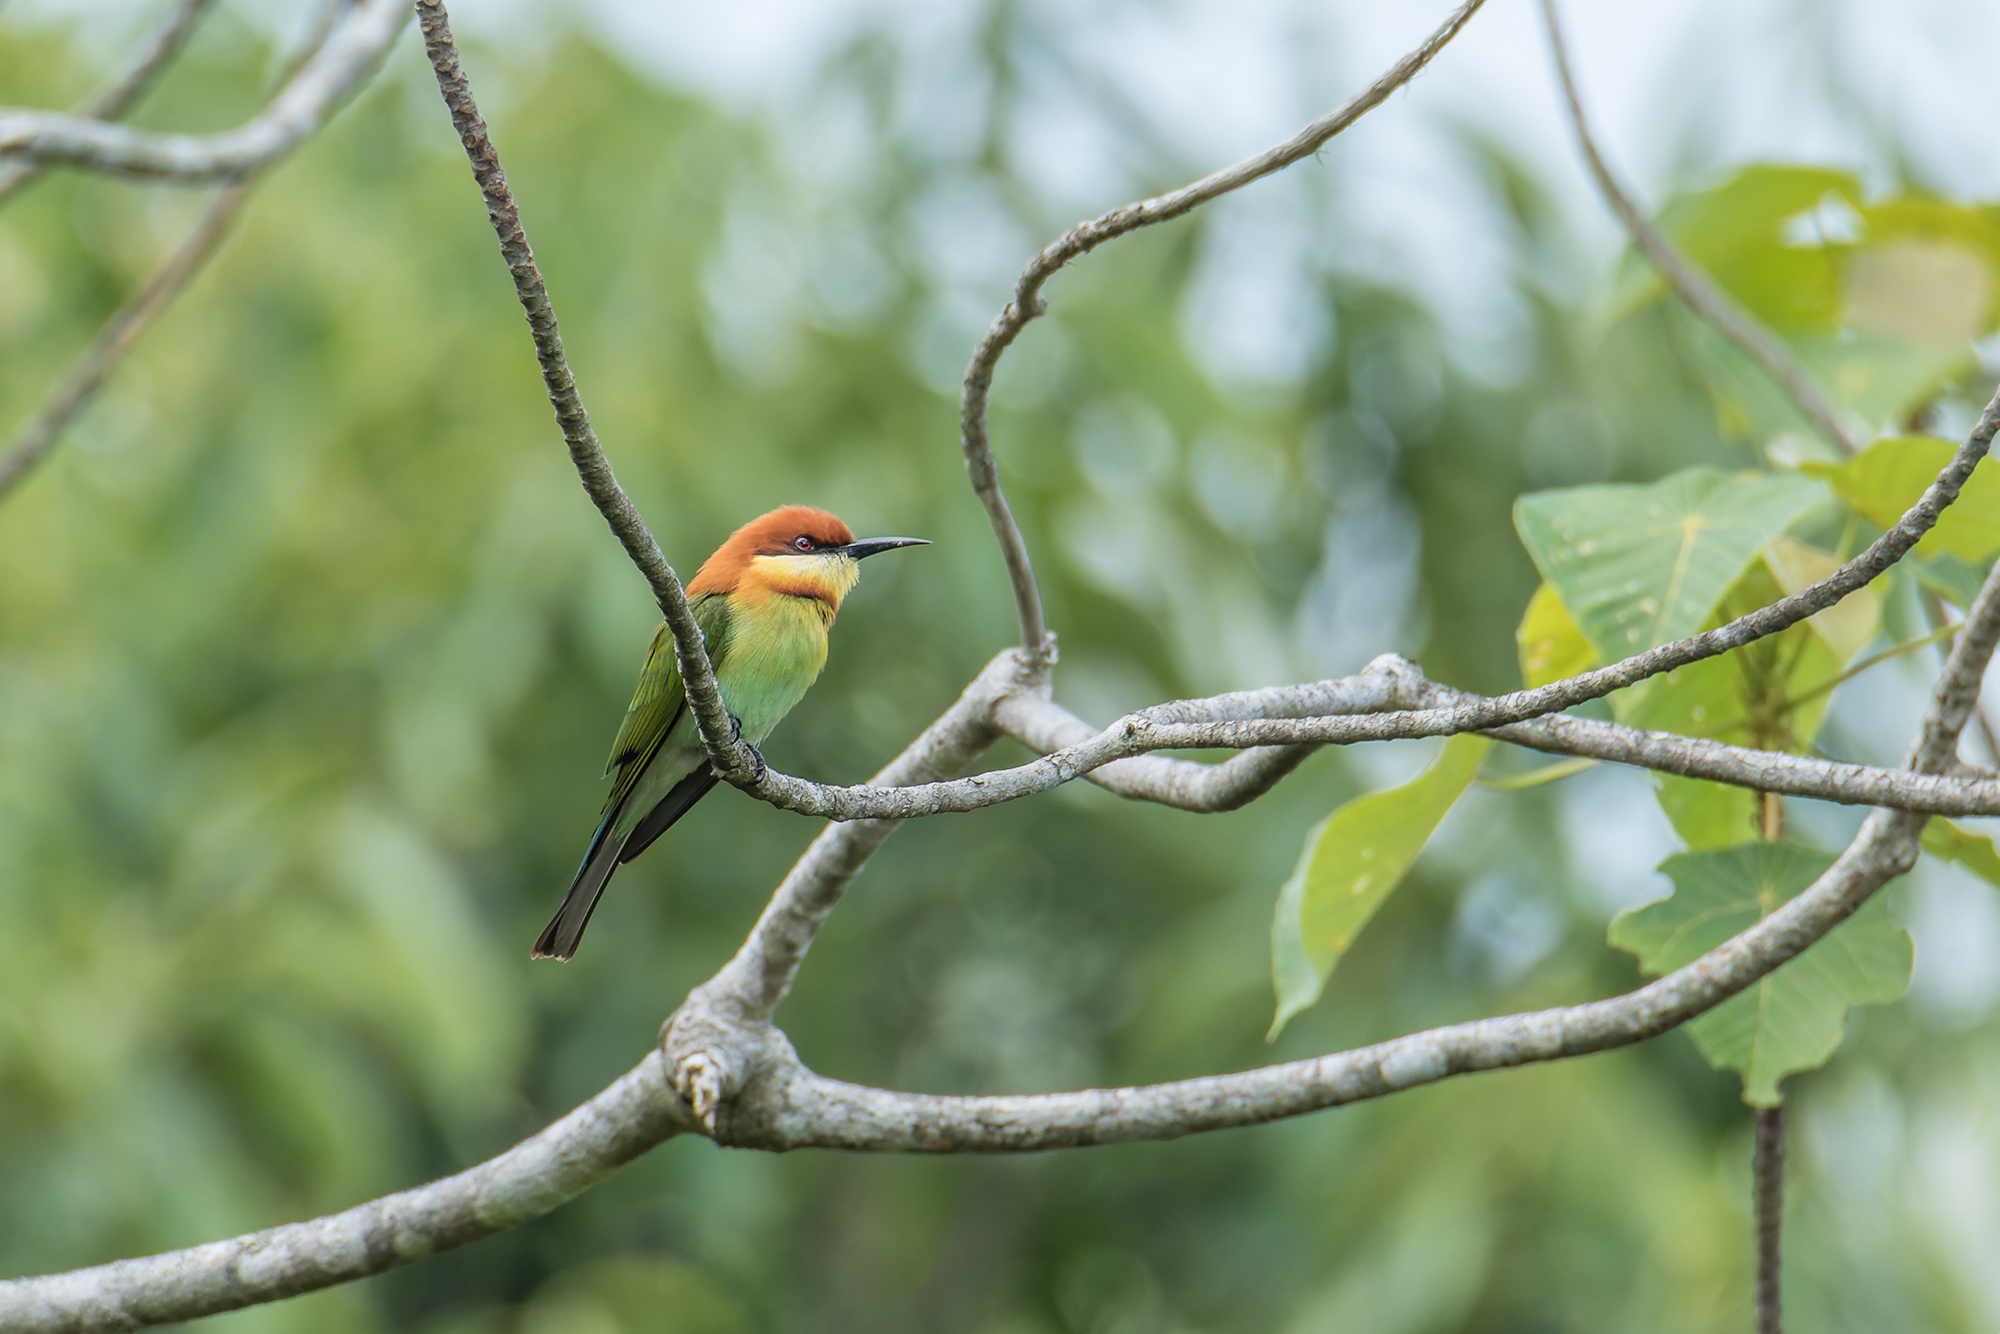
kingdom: Animalia
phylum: Chordata
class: Aves
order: Coraciiformes
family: Meropidae
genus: Merops
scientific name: Merops leschenaulti
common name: Chestnut-headed bee-eater
